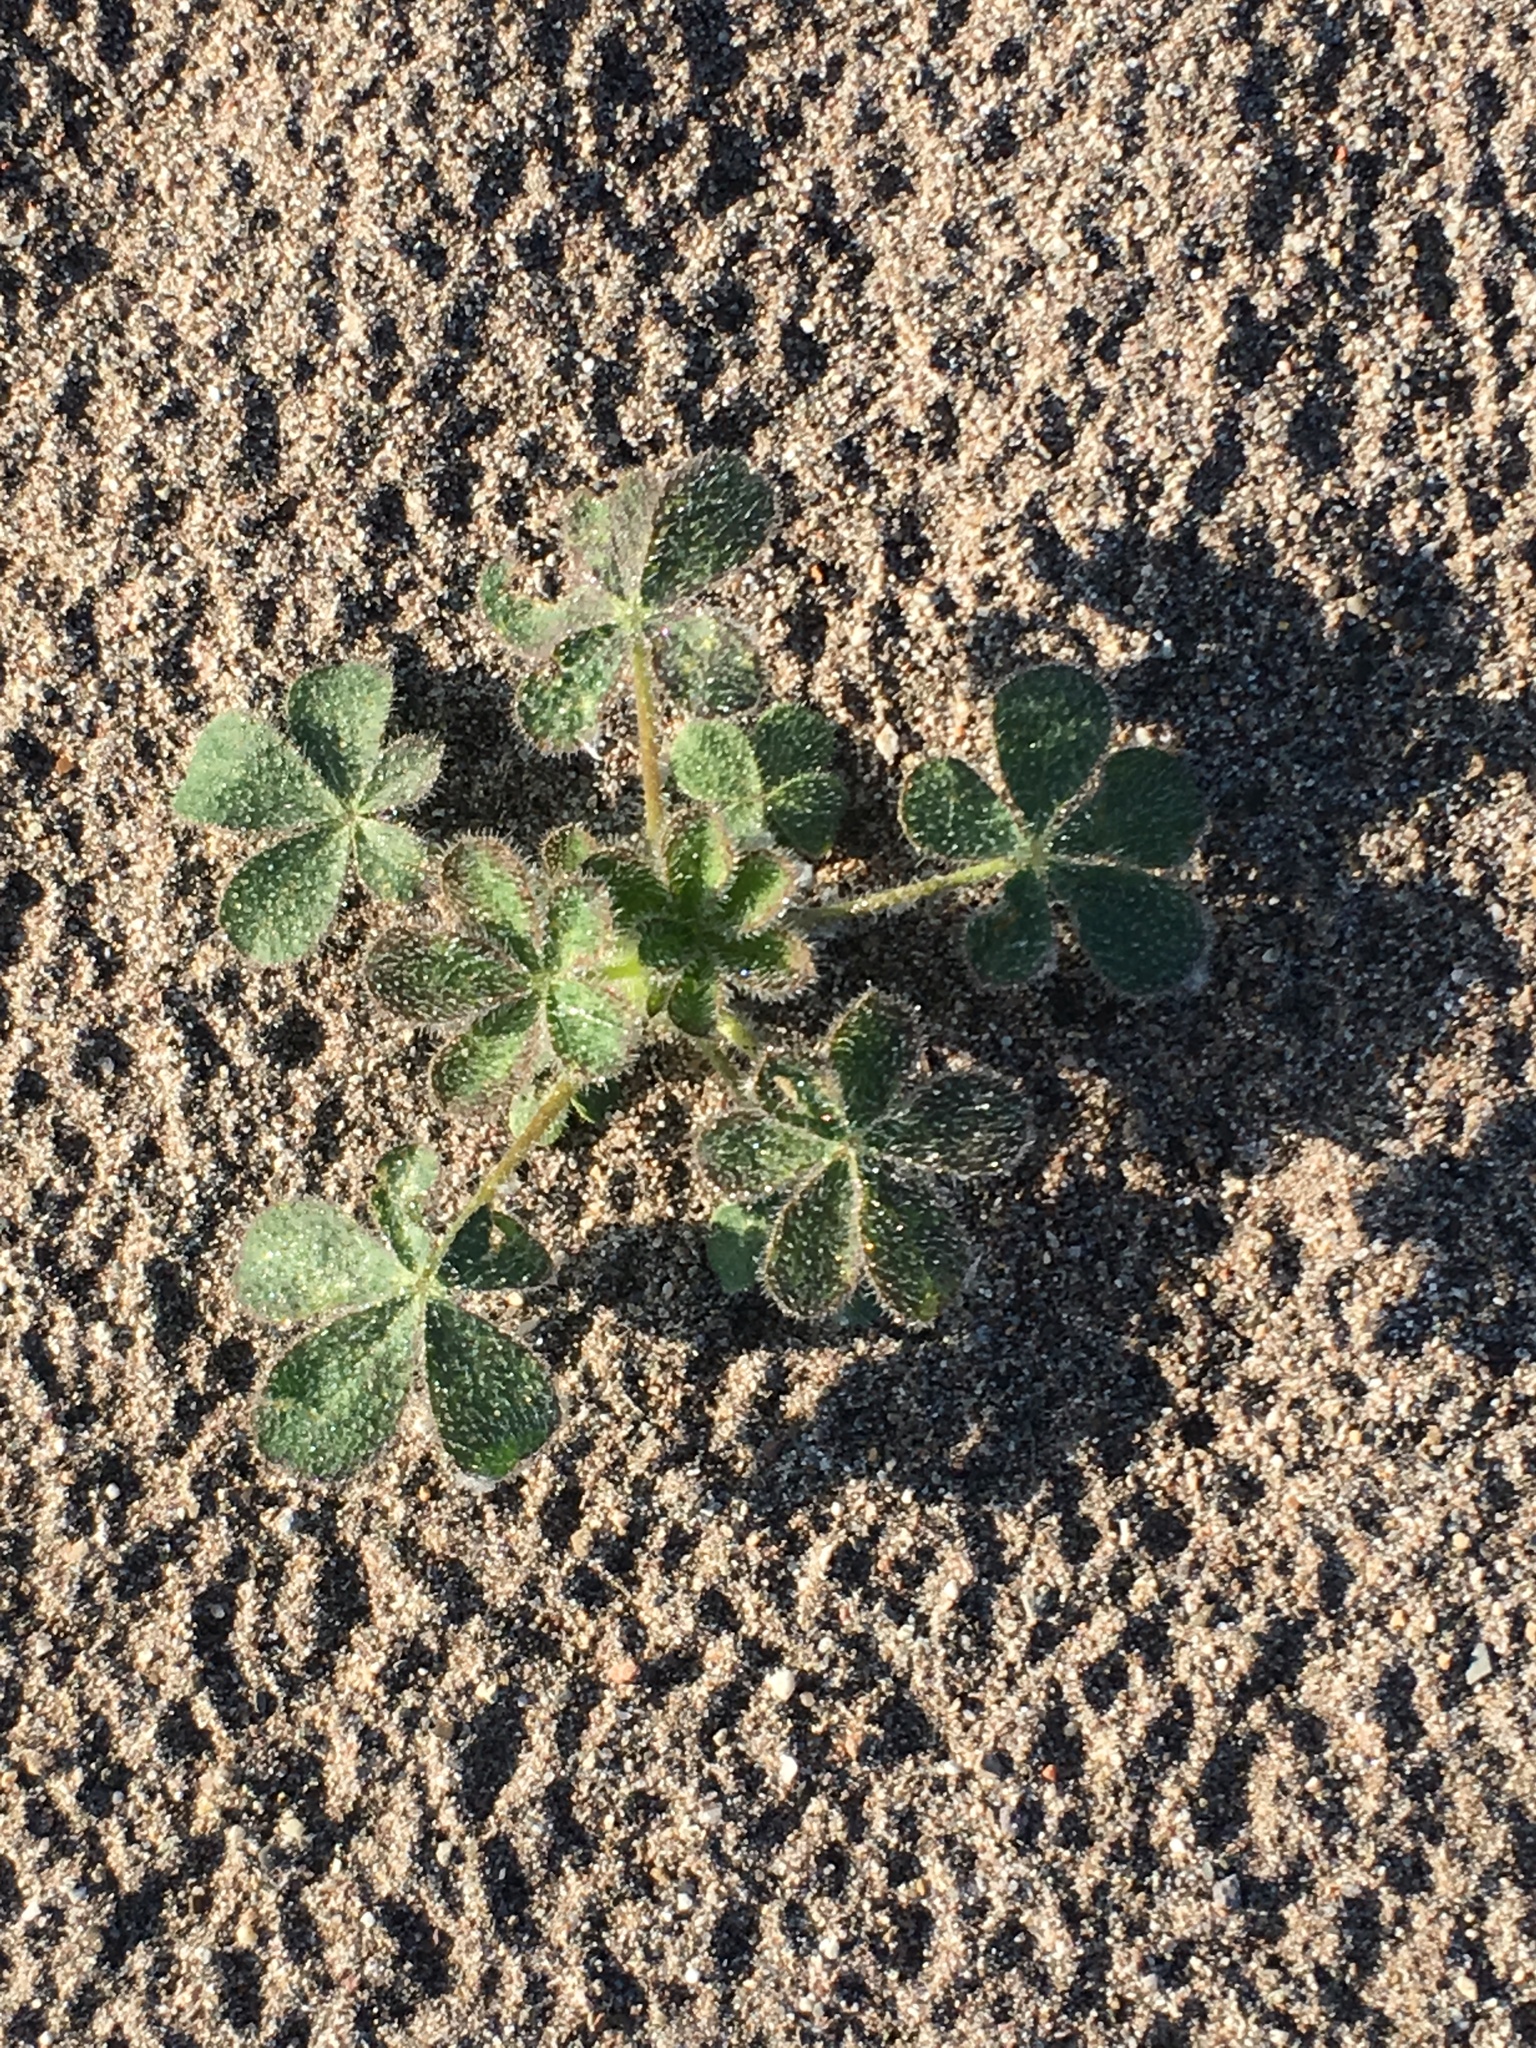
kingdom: Plantae
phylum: Tracheophyta
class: Magnoliopsida
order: Fabales
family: Fabaceae
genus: Lupinus
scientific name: Lupinus hirsutissimus
